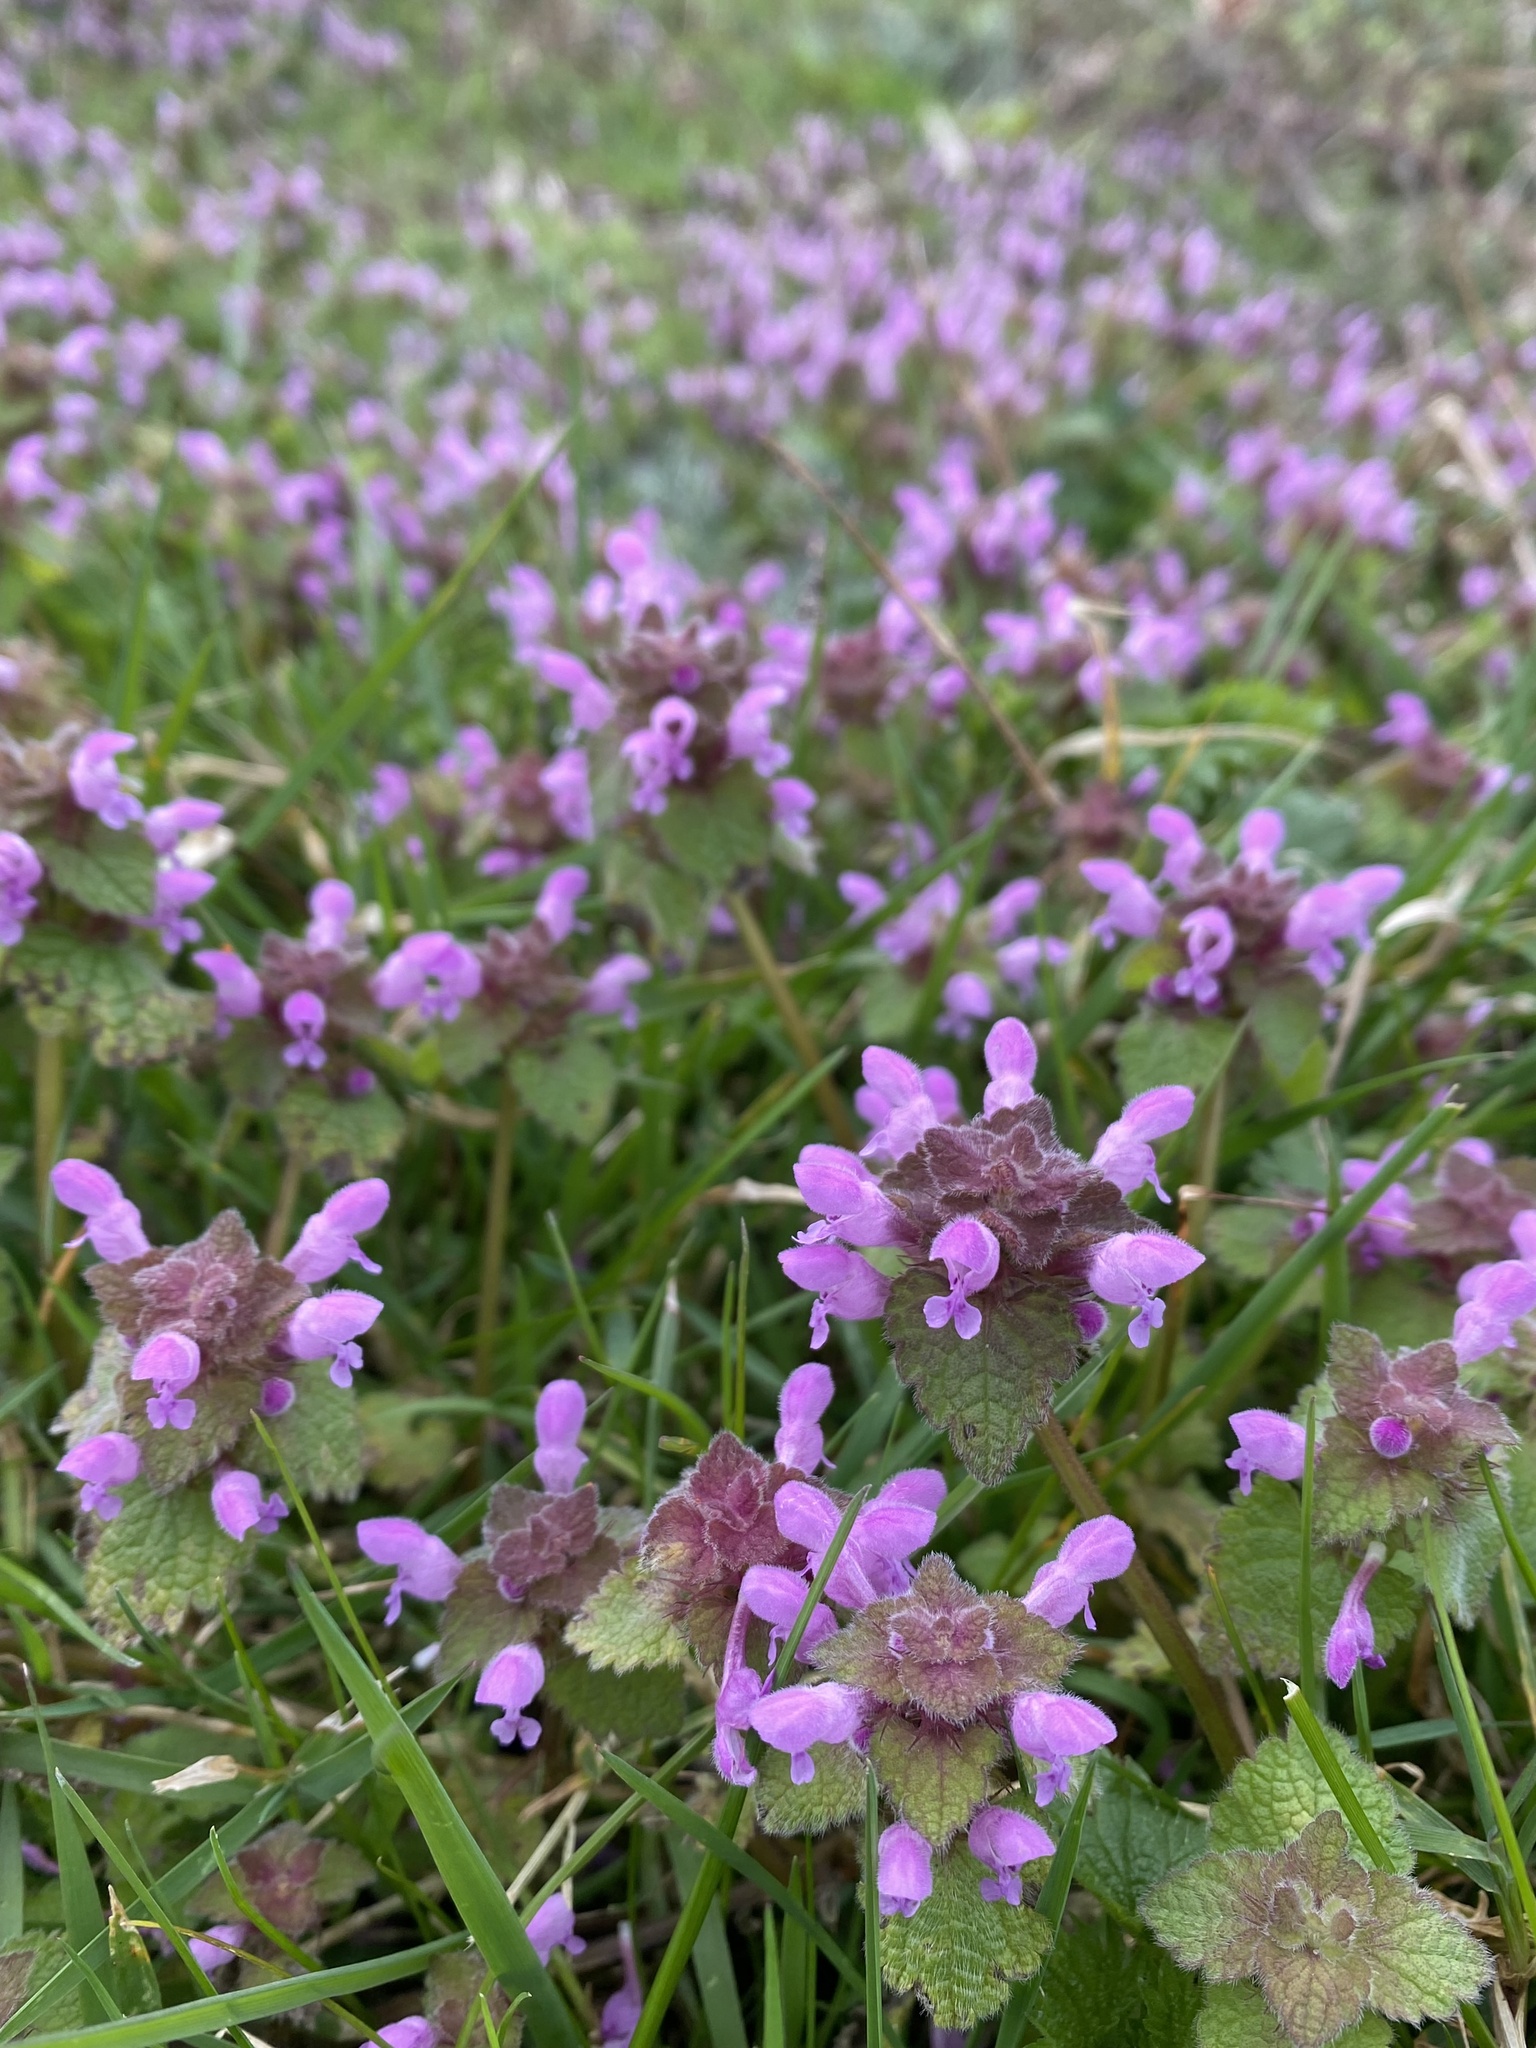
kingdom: Plantae
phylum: Tracheophyta
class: Magnoliopsida
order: Lamiales
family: Lamiaceae
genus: Lamium
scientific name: Lamium purpureum
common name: Red dead-nettle
